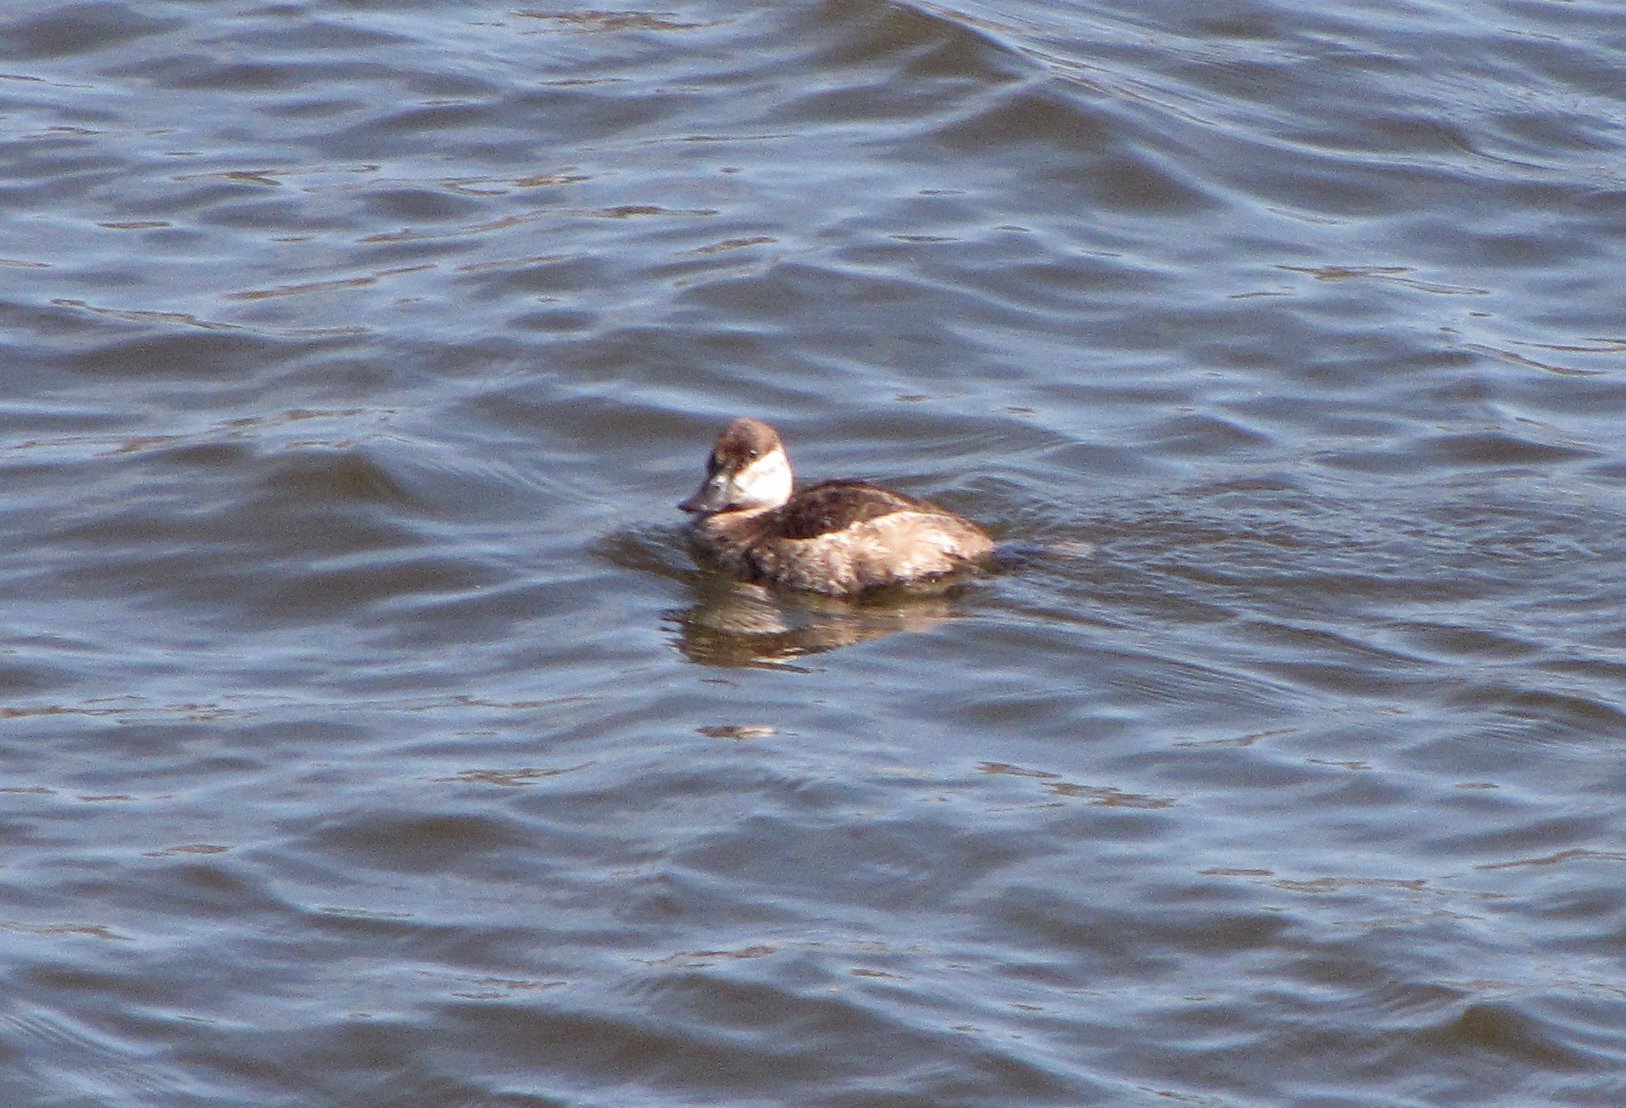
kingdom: Animalia
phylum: Chordata
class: Aves
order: Anseriformes
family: Anatidae
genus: Oxyura
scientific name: Oxyura jamaicensis
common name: Ruddy duck
